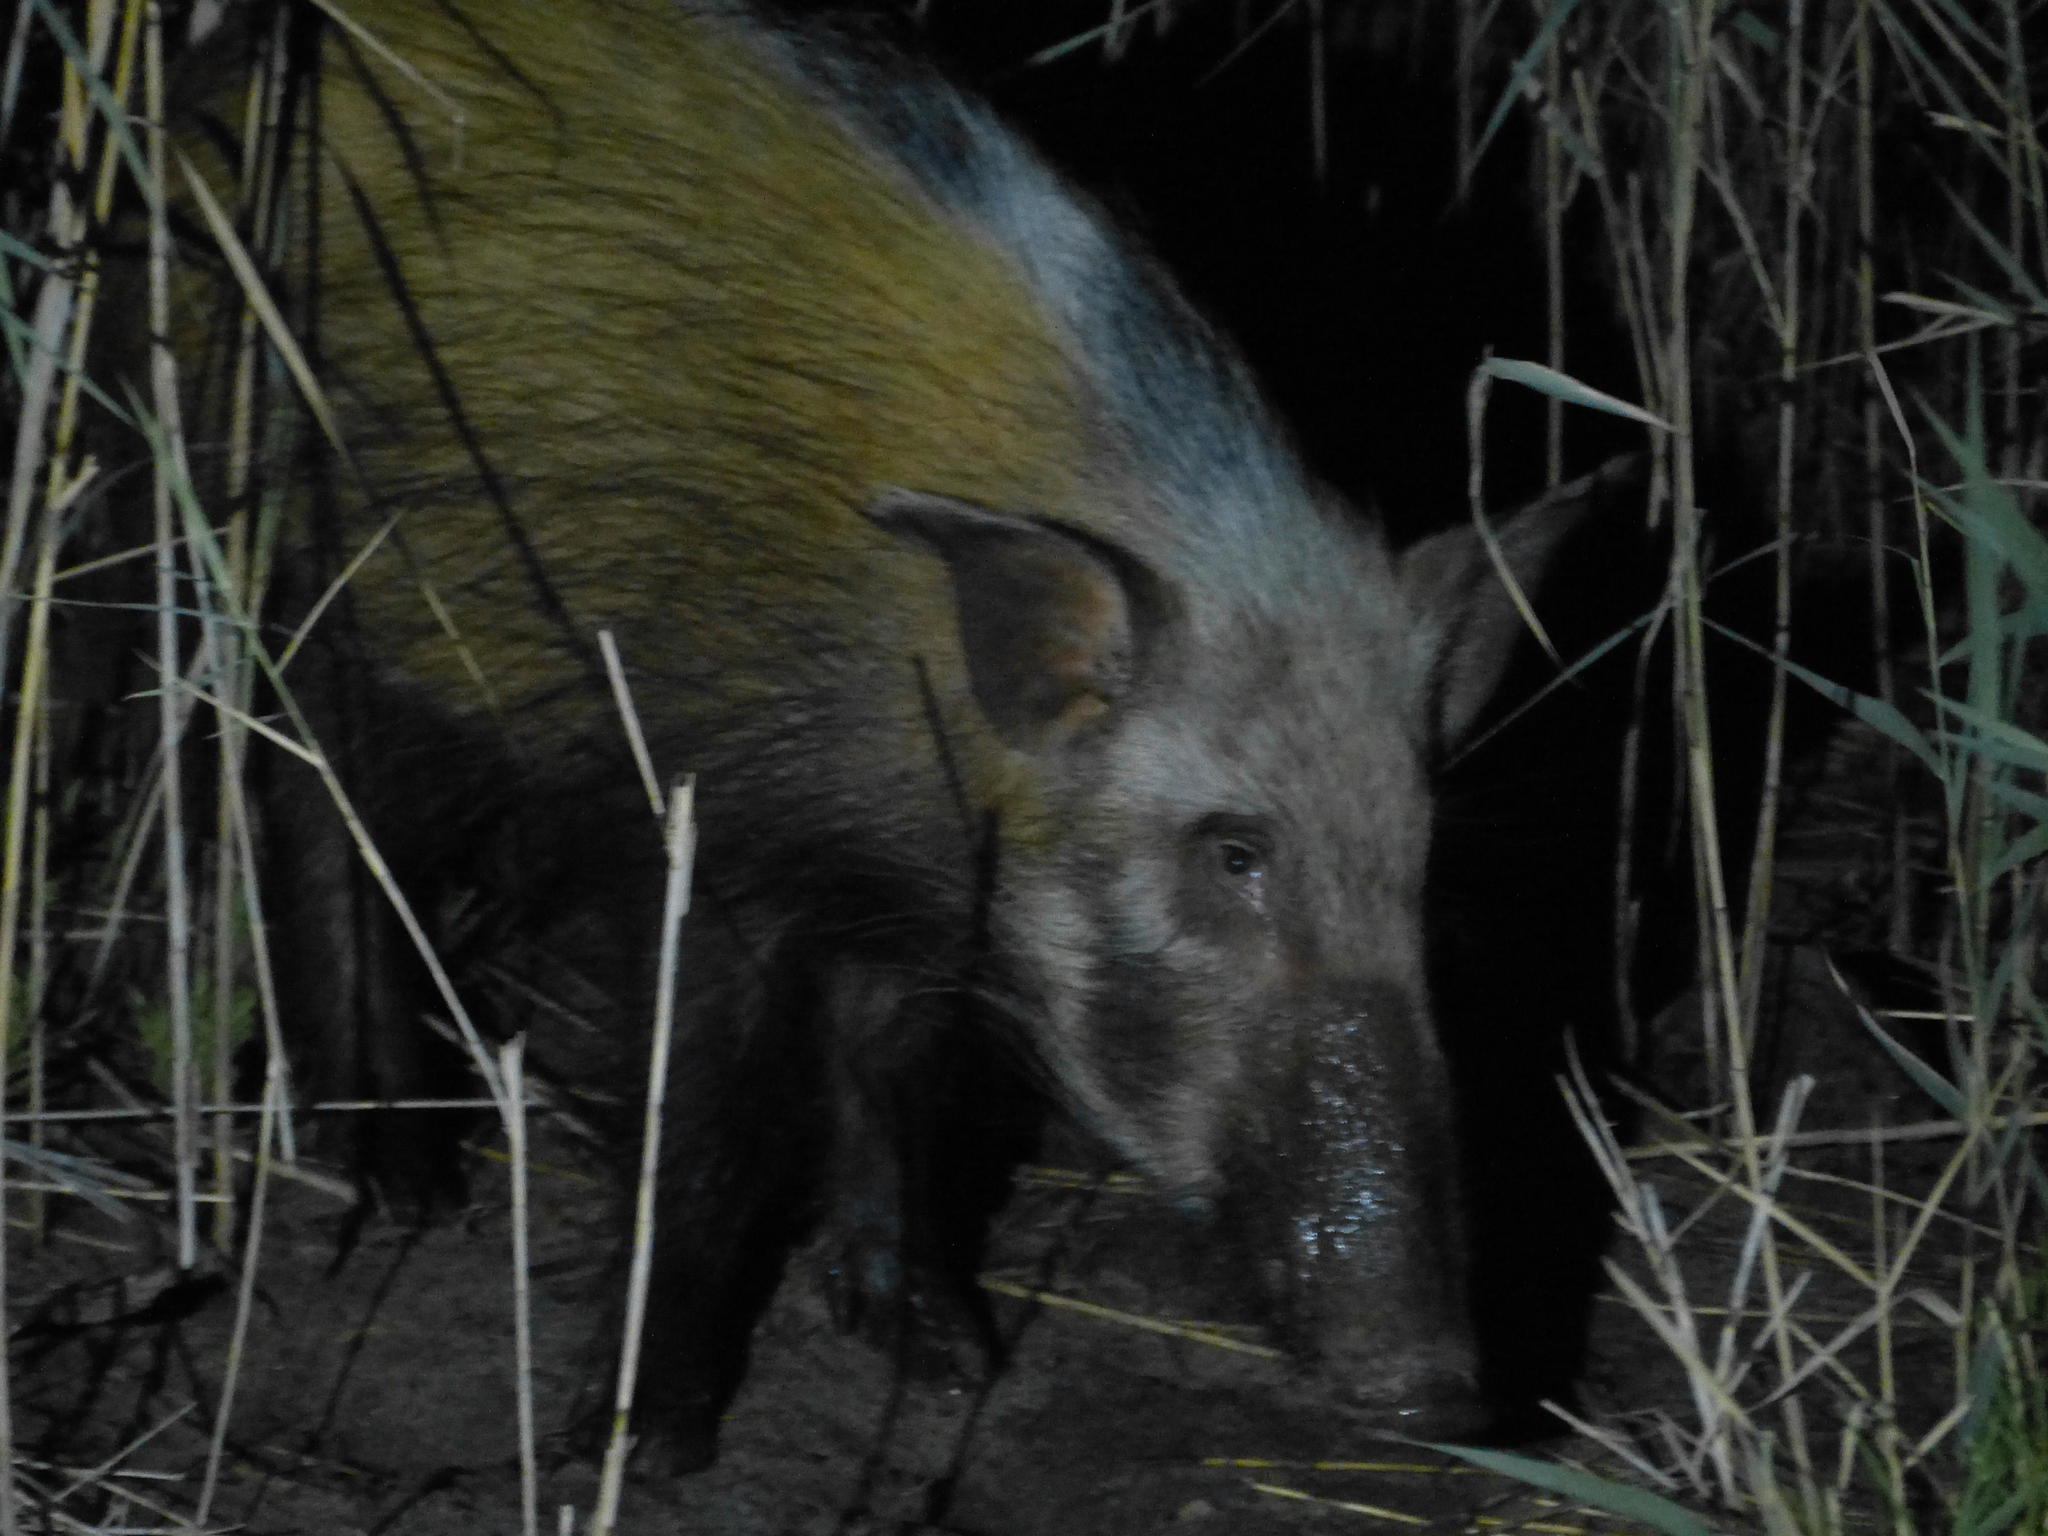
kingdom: Animalia
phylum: Chordata
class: Mammalia
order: Artiodactyla
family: Suidae
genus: Potamochoerus
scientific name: Potamochoerus larvatus
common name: Bushpig
